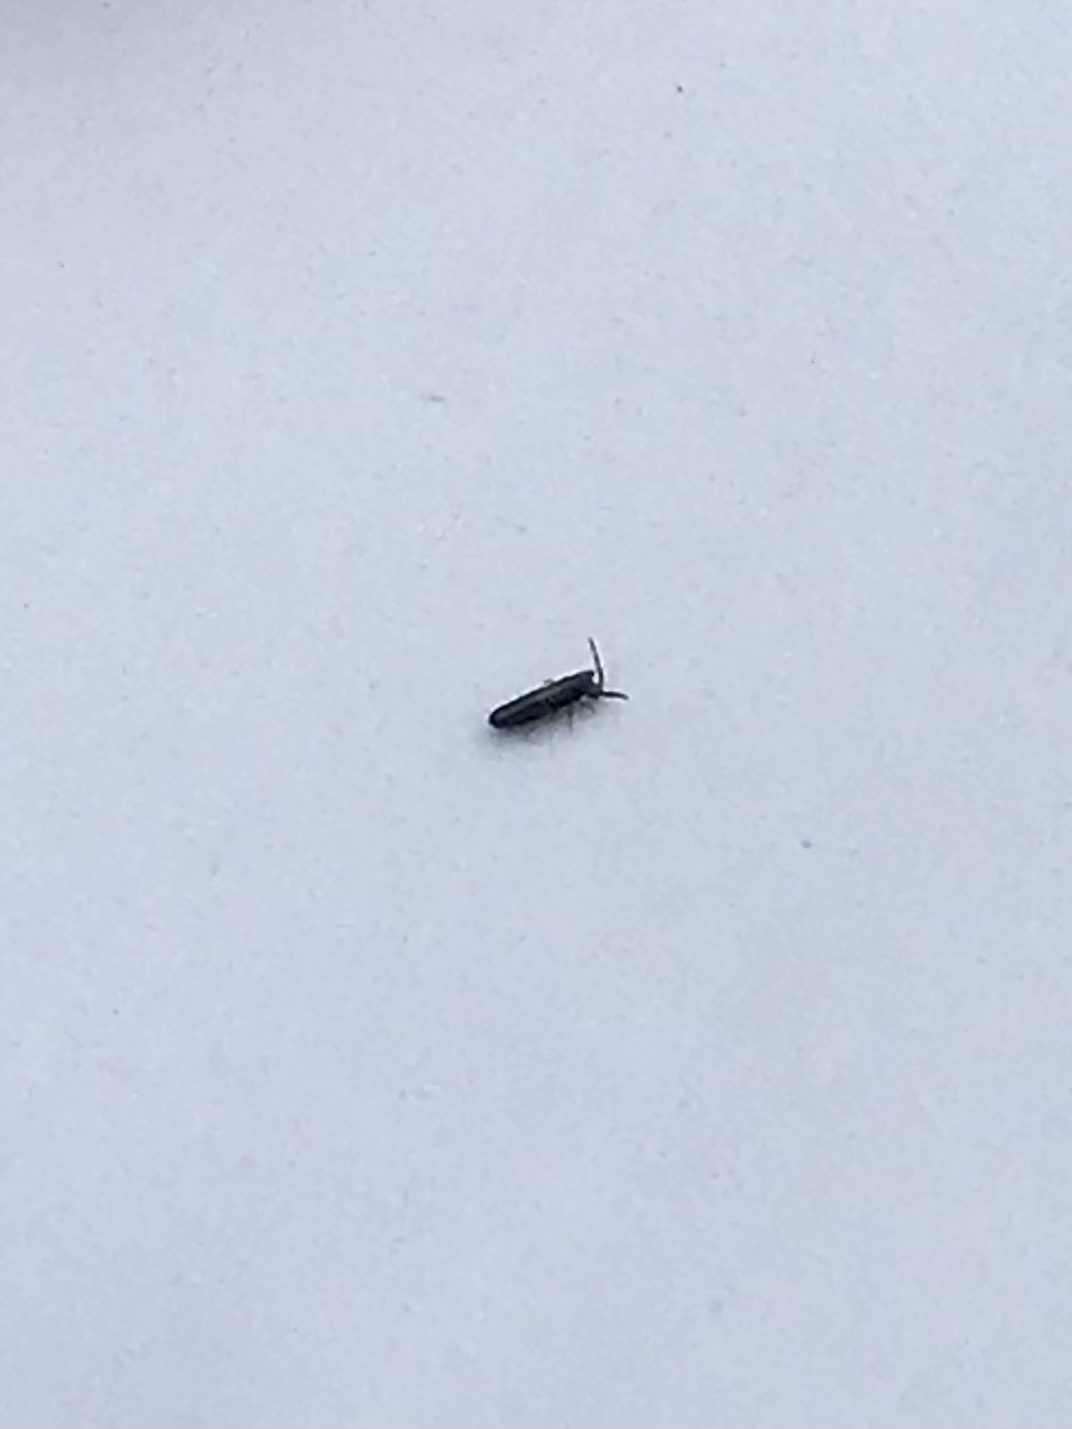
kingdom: Animalia
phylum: Arthropoda
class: Collembola
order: Entomobryomorpha
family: Entomobryidae
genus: Lepidocyrtus
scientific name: Lepidocyrtus paradoxus
